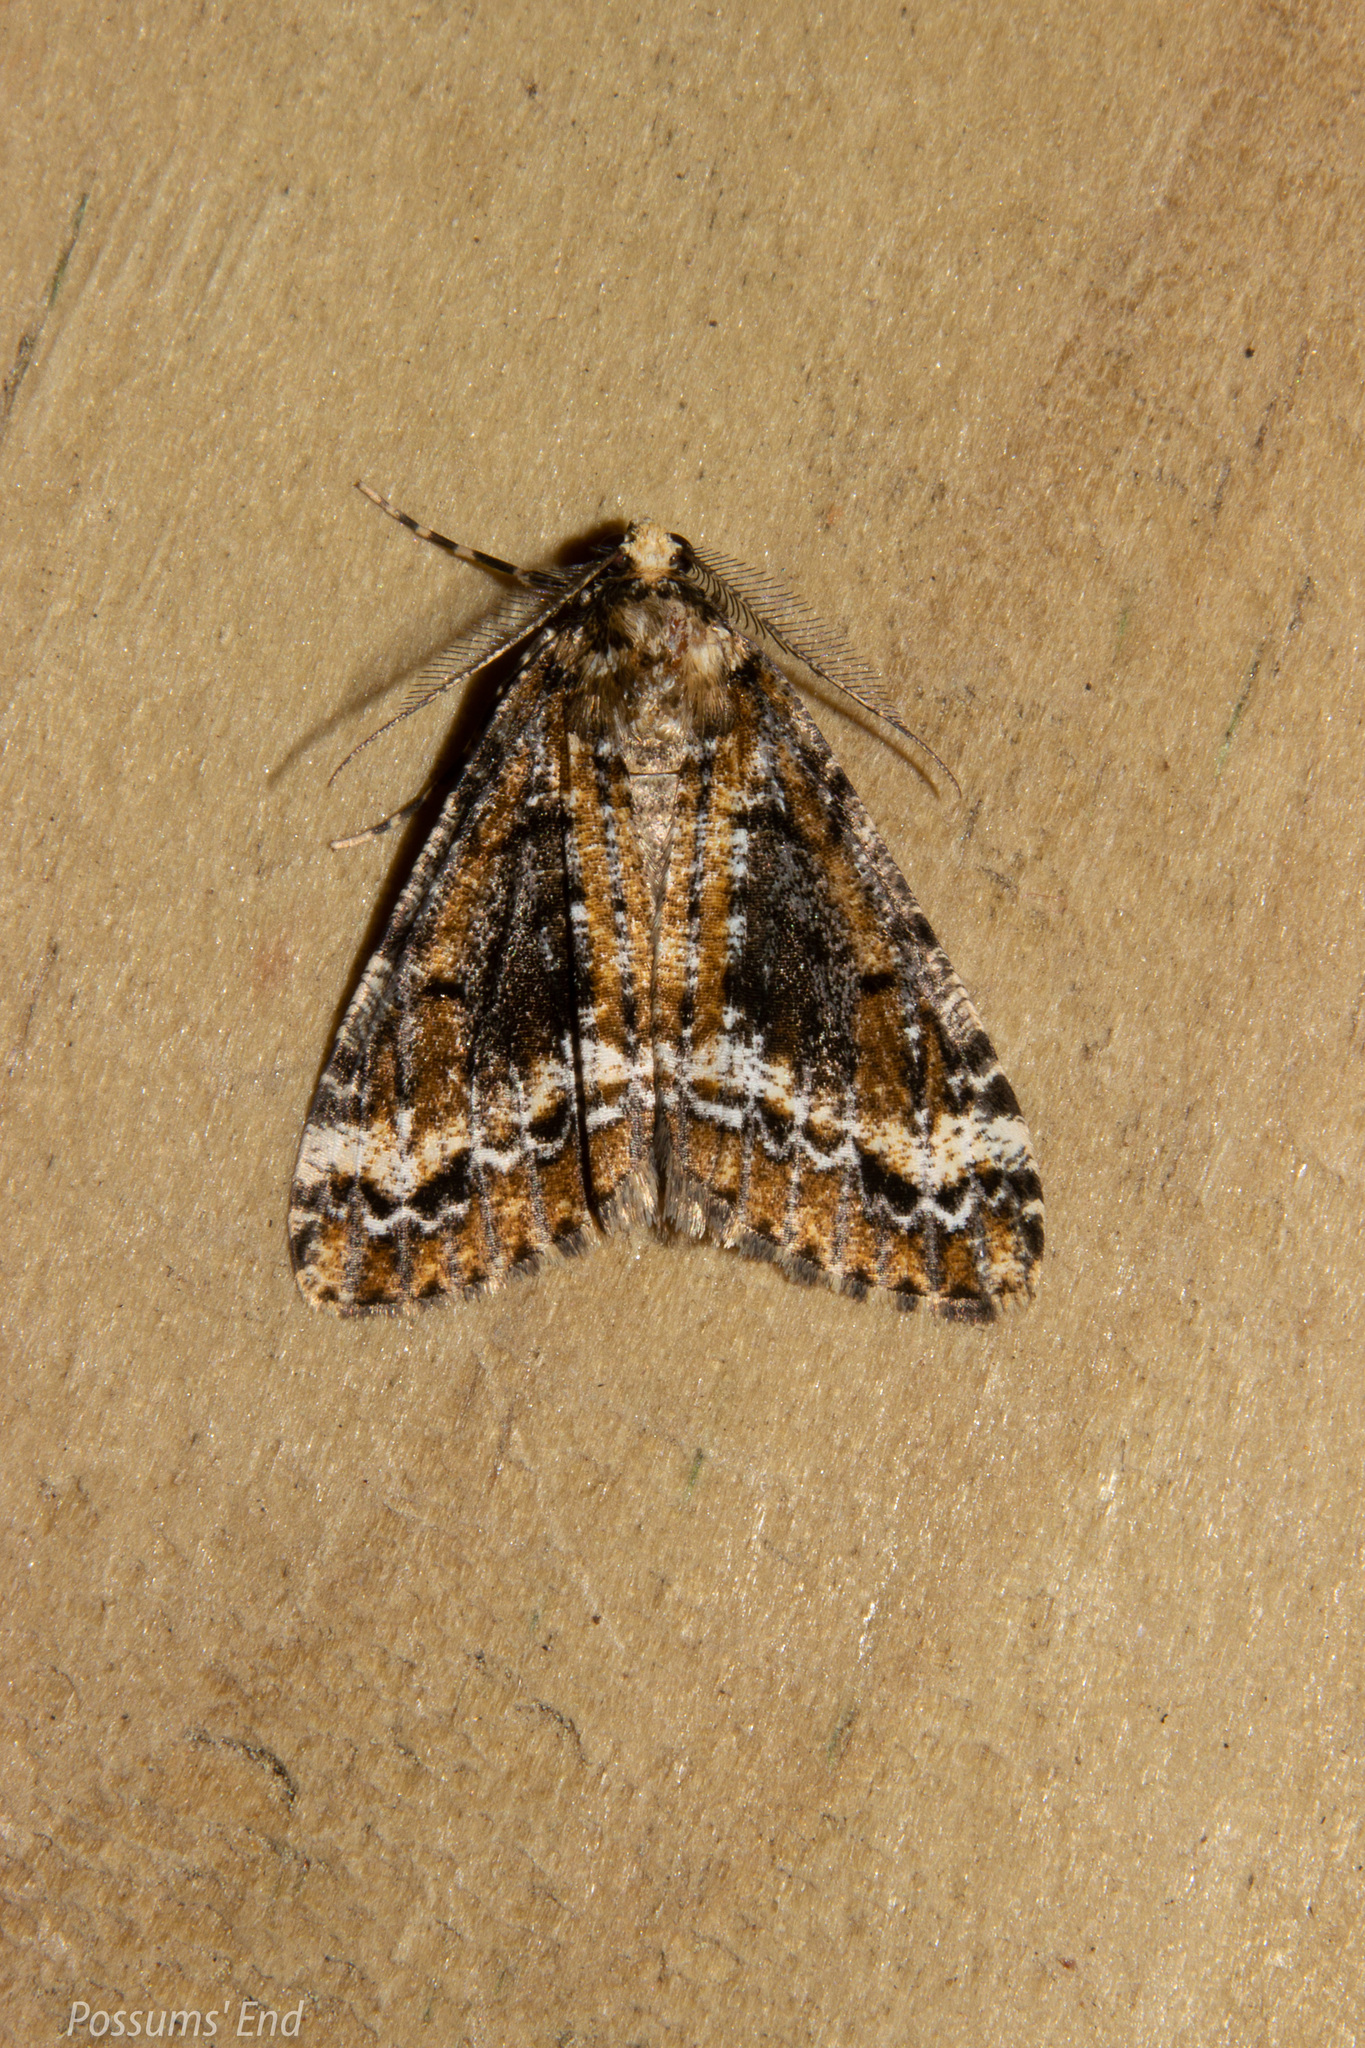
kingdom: Animalia
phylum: Arthropoda
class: Insecta
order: Lepidoptera
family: Geometridae
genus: Pseudocoremia
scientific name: Pseudocoremia leucelaea
